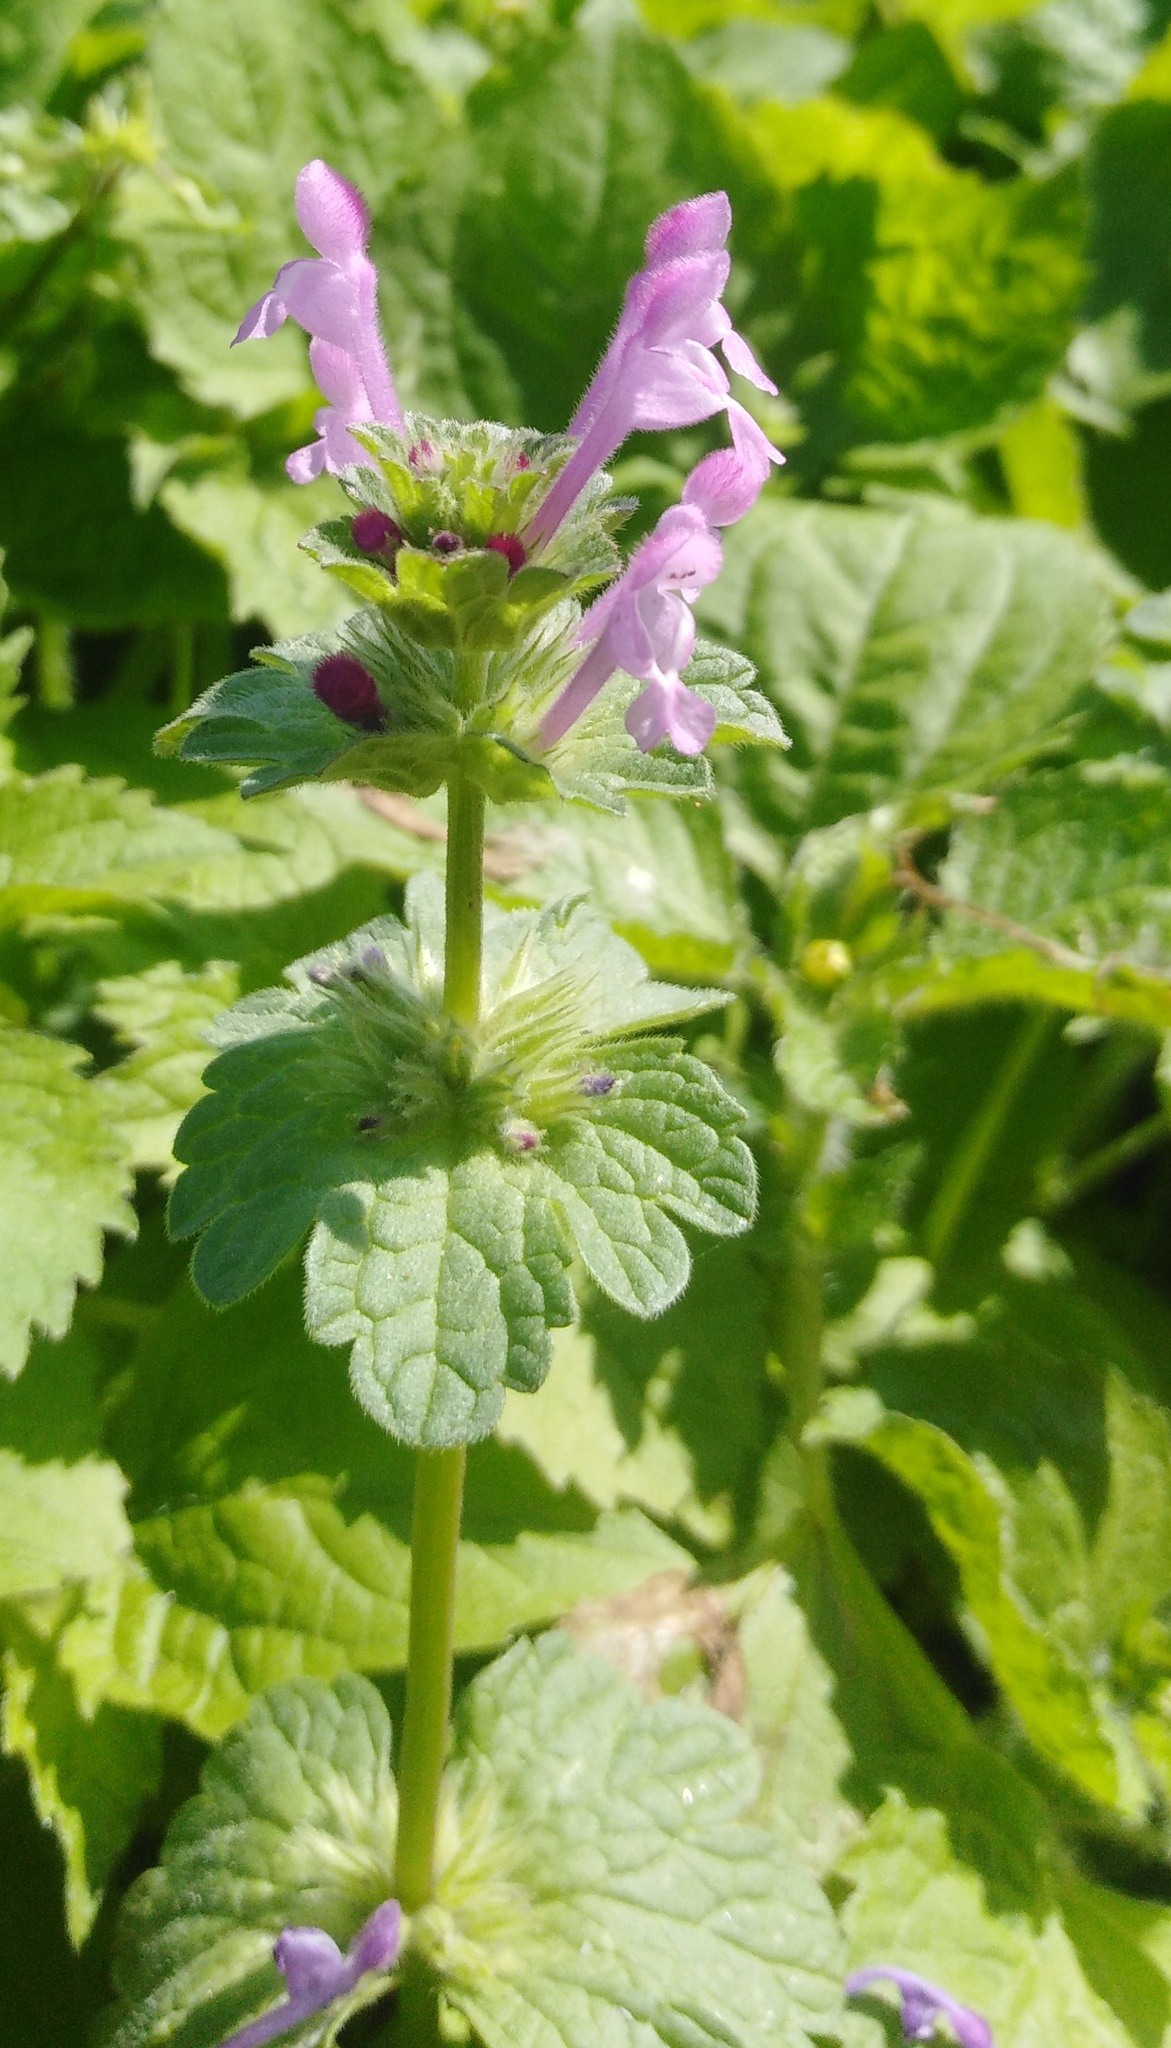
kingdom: Plantae
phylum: Tracheophyta
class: Magnoliopsida
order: Lamiales
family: Lamiaceae
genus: Lamium
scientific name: Lamium amplexicaule
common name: Henbit dead-nettle
